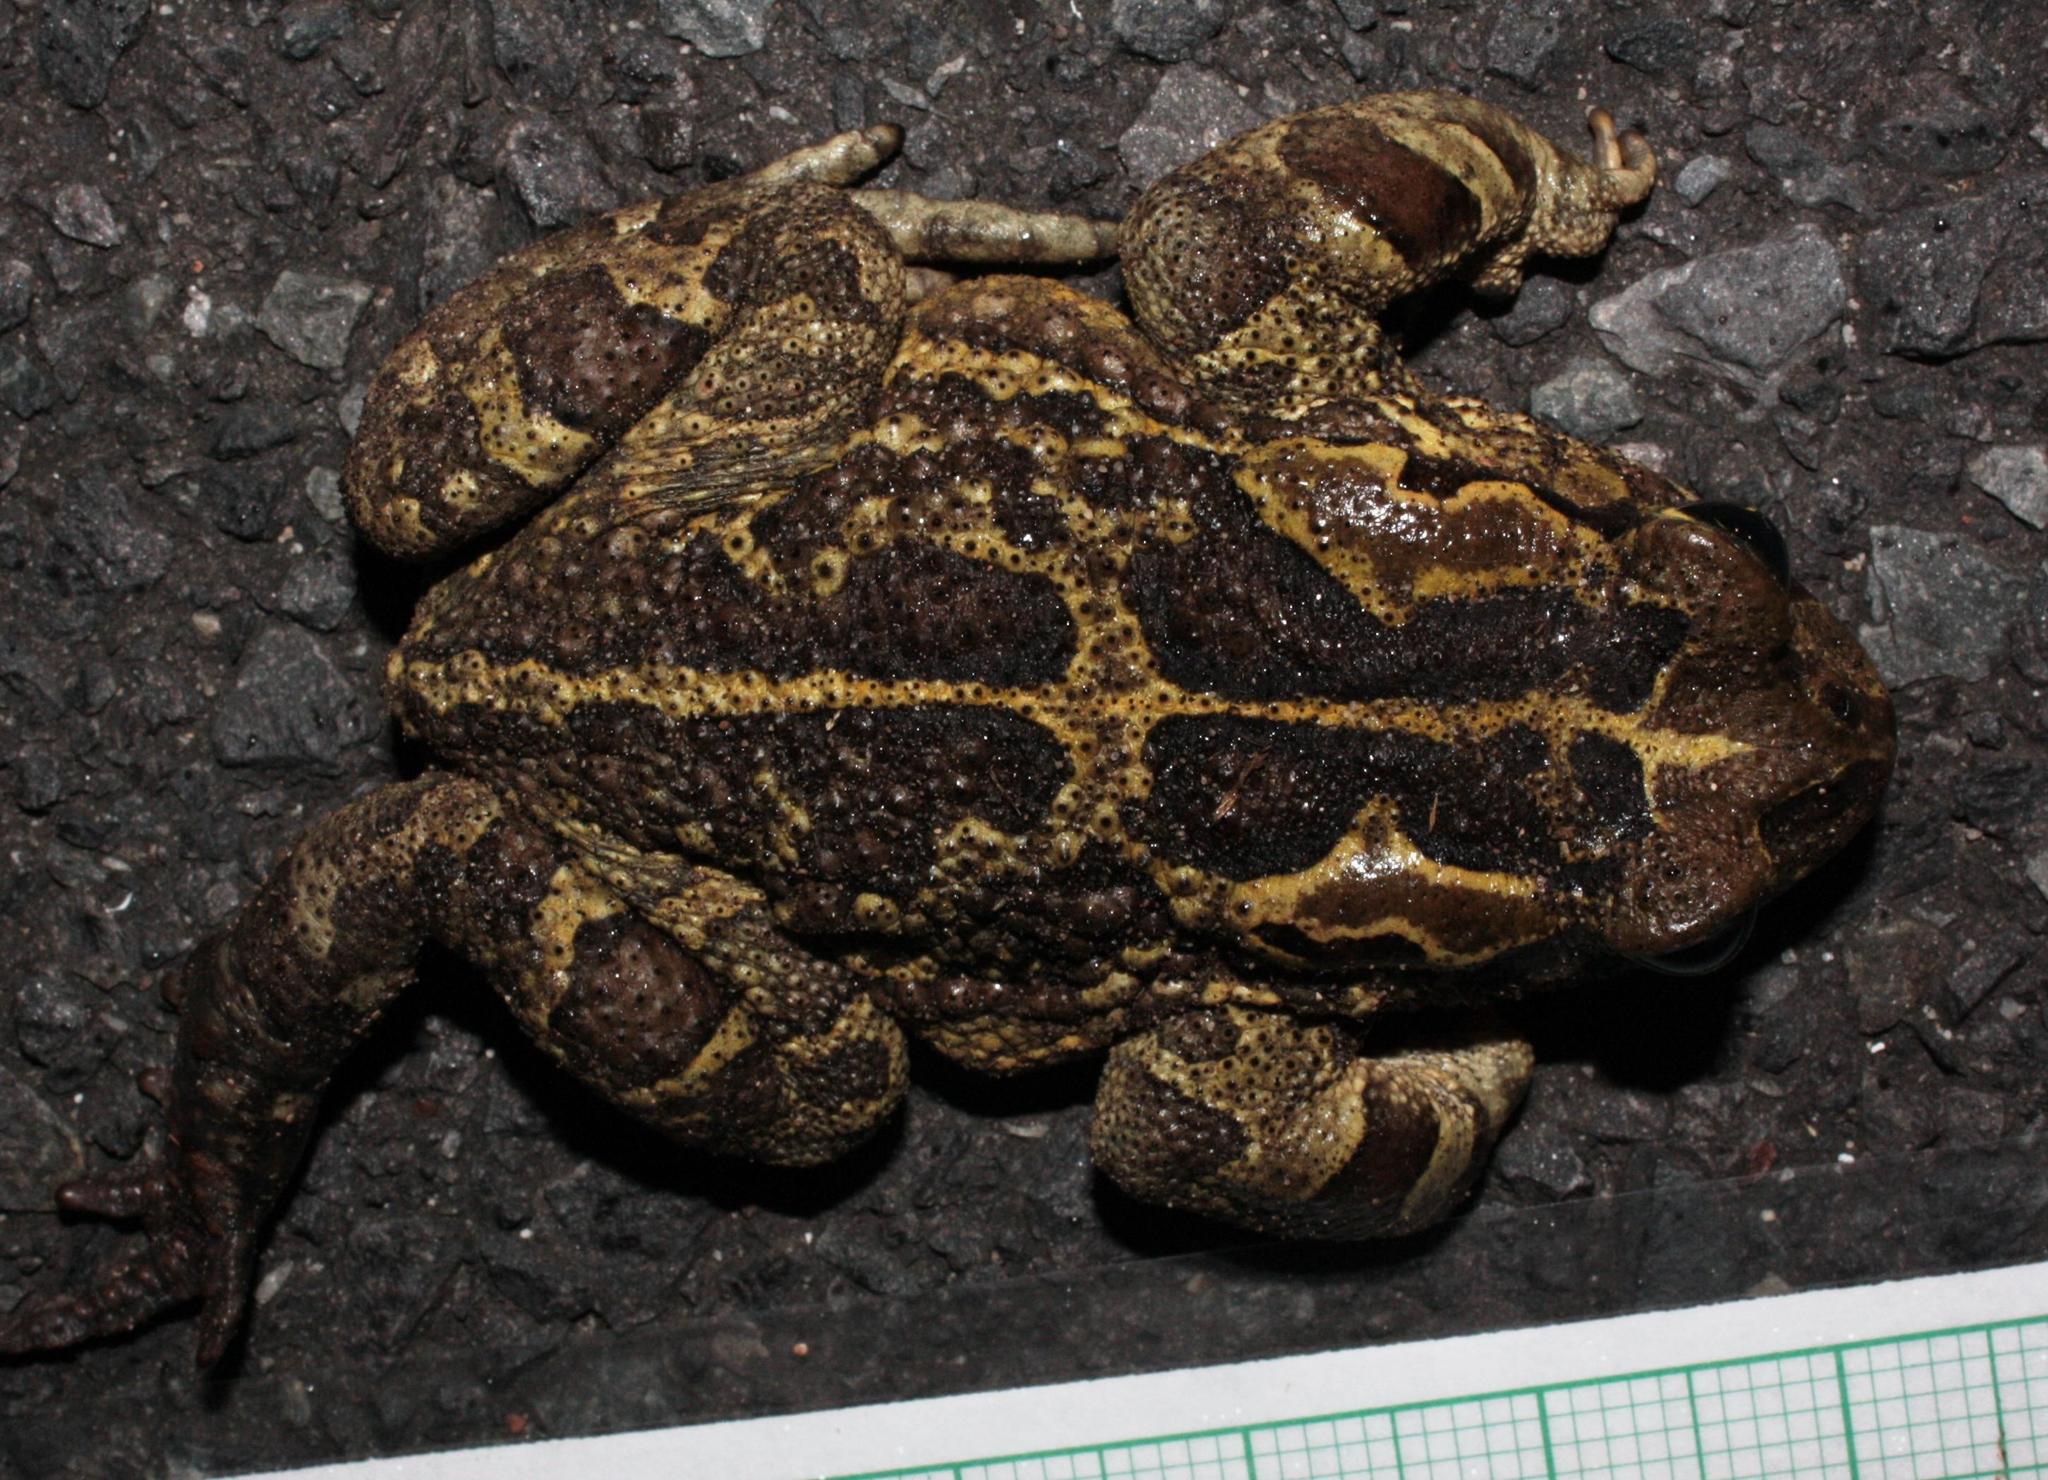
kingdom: Animalia
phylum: Chordata
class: Amphibia
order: Anura
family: Bufonidae
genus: Sclerophrys
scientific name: Sclerophrys pantherina
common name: Panther toad
